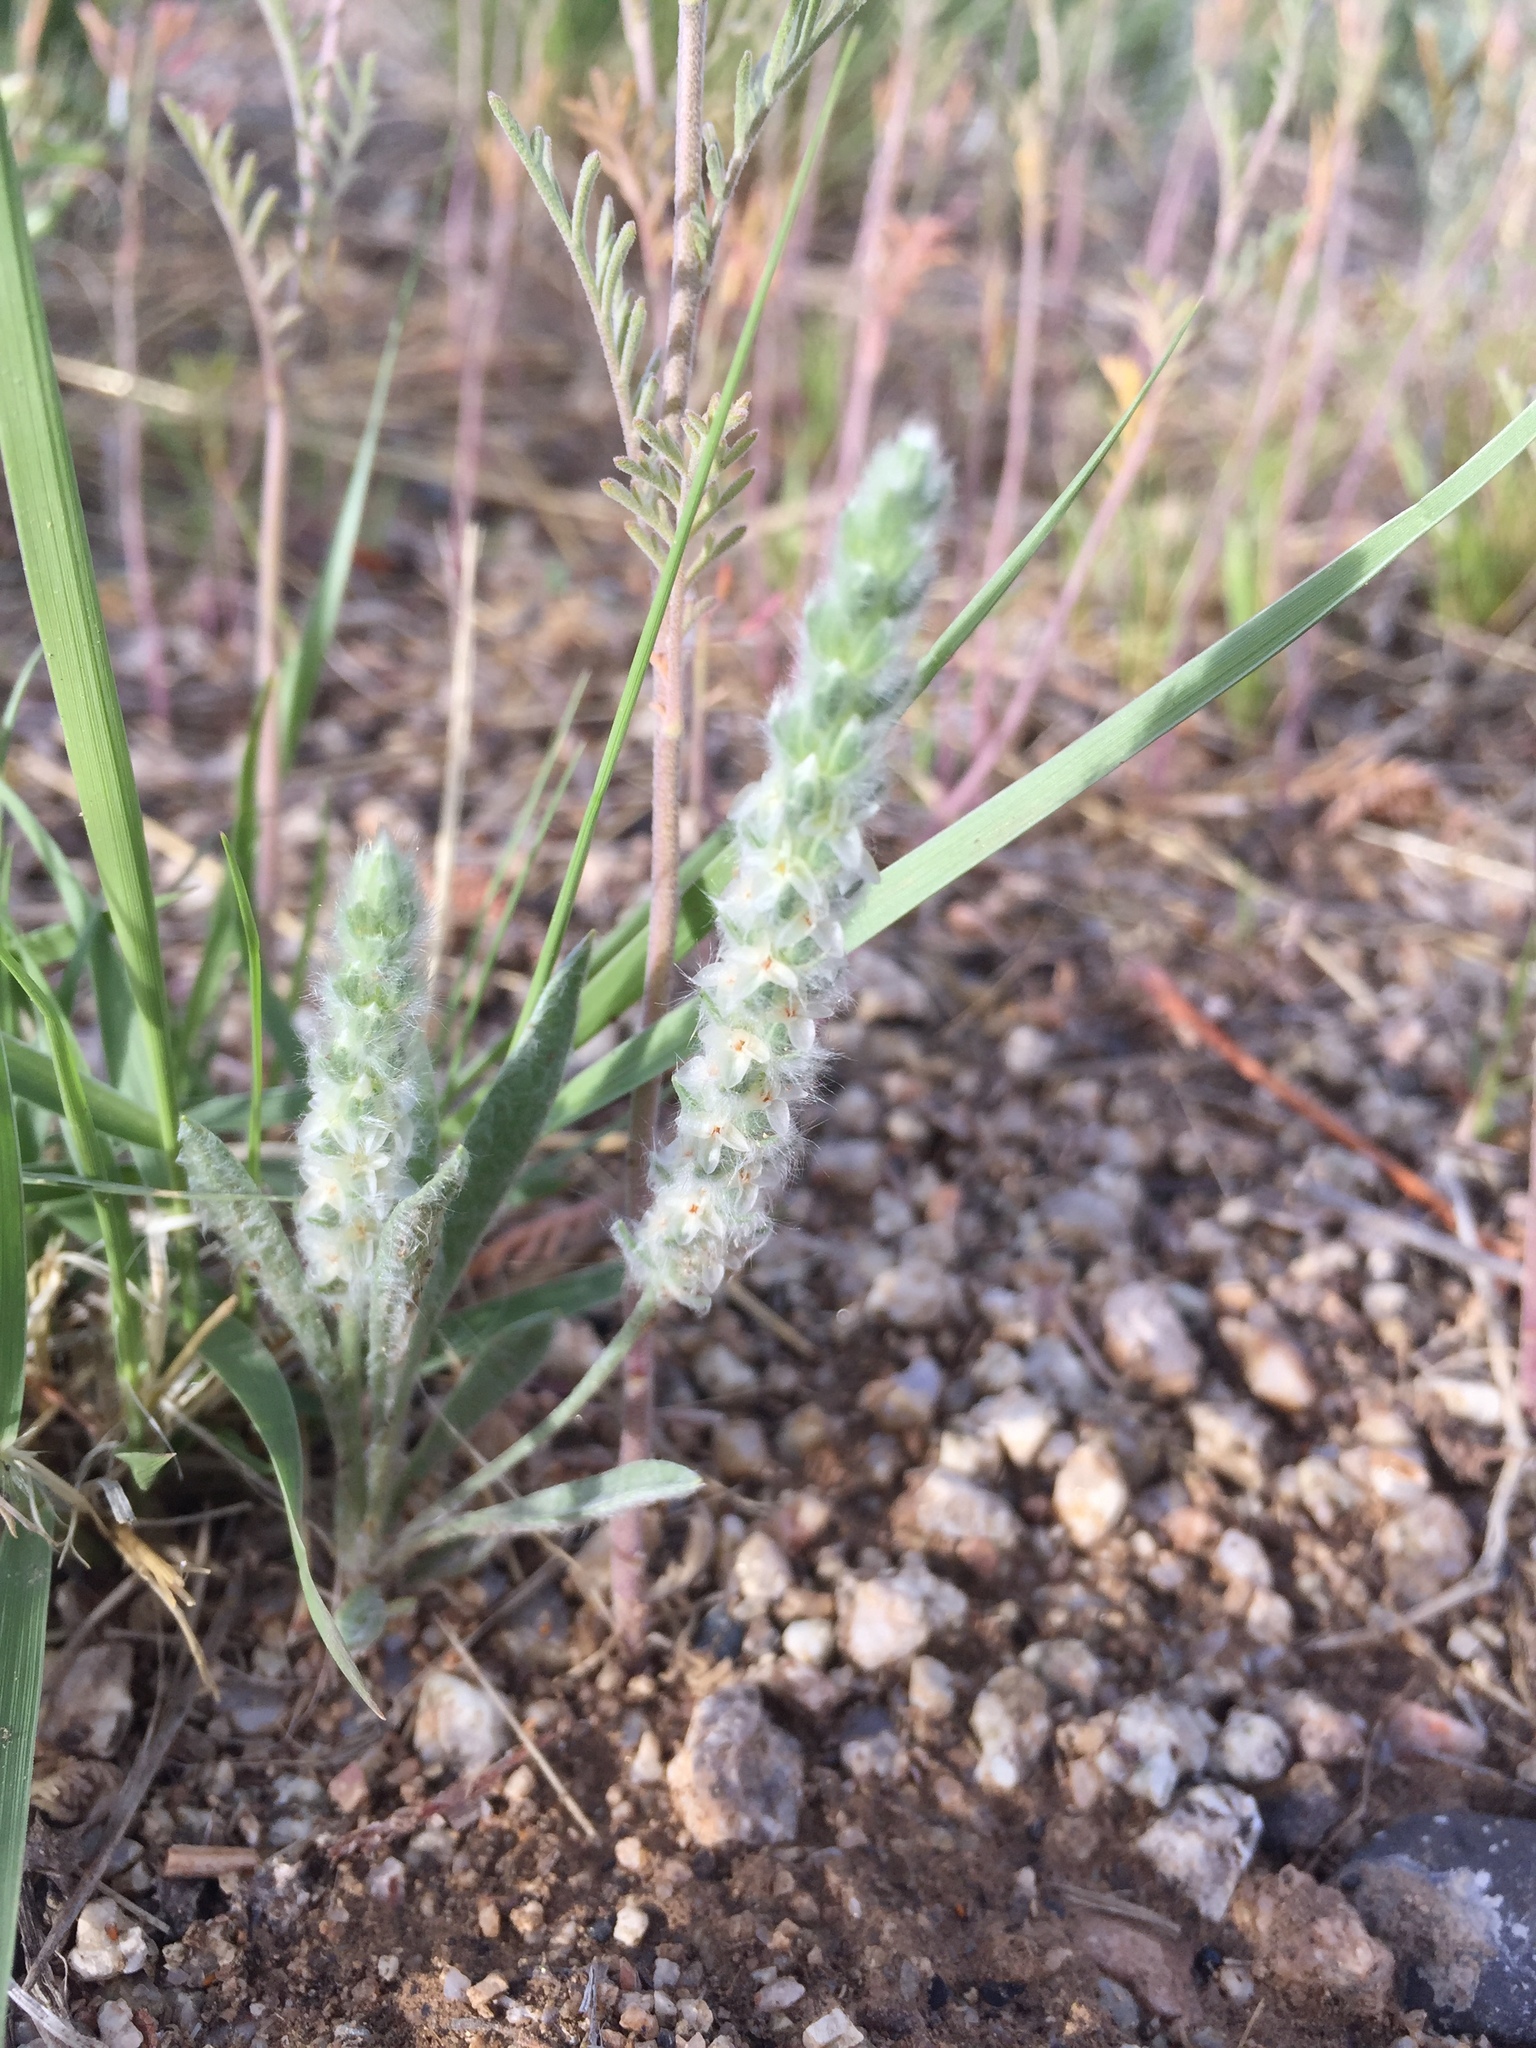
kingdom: Plantae
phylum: Tracheophyta
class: Magnoliopsida
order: Lamiales
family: Plantaginaceae
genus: Plantago
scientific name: Plantago patagonica
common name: Patagonia indian-wheat
